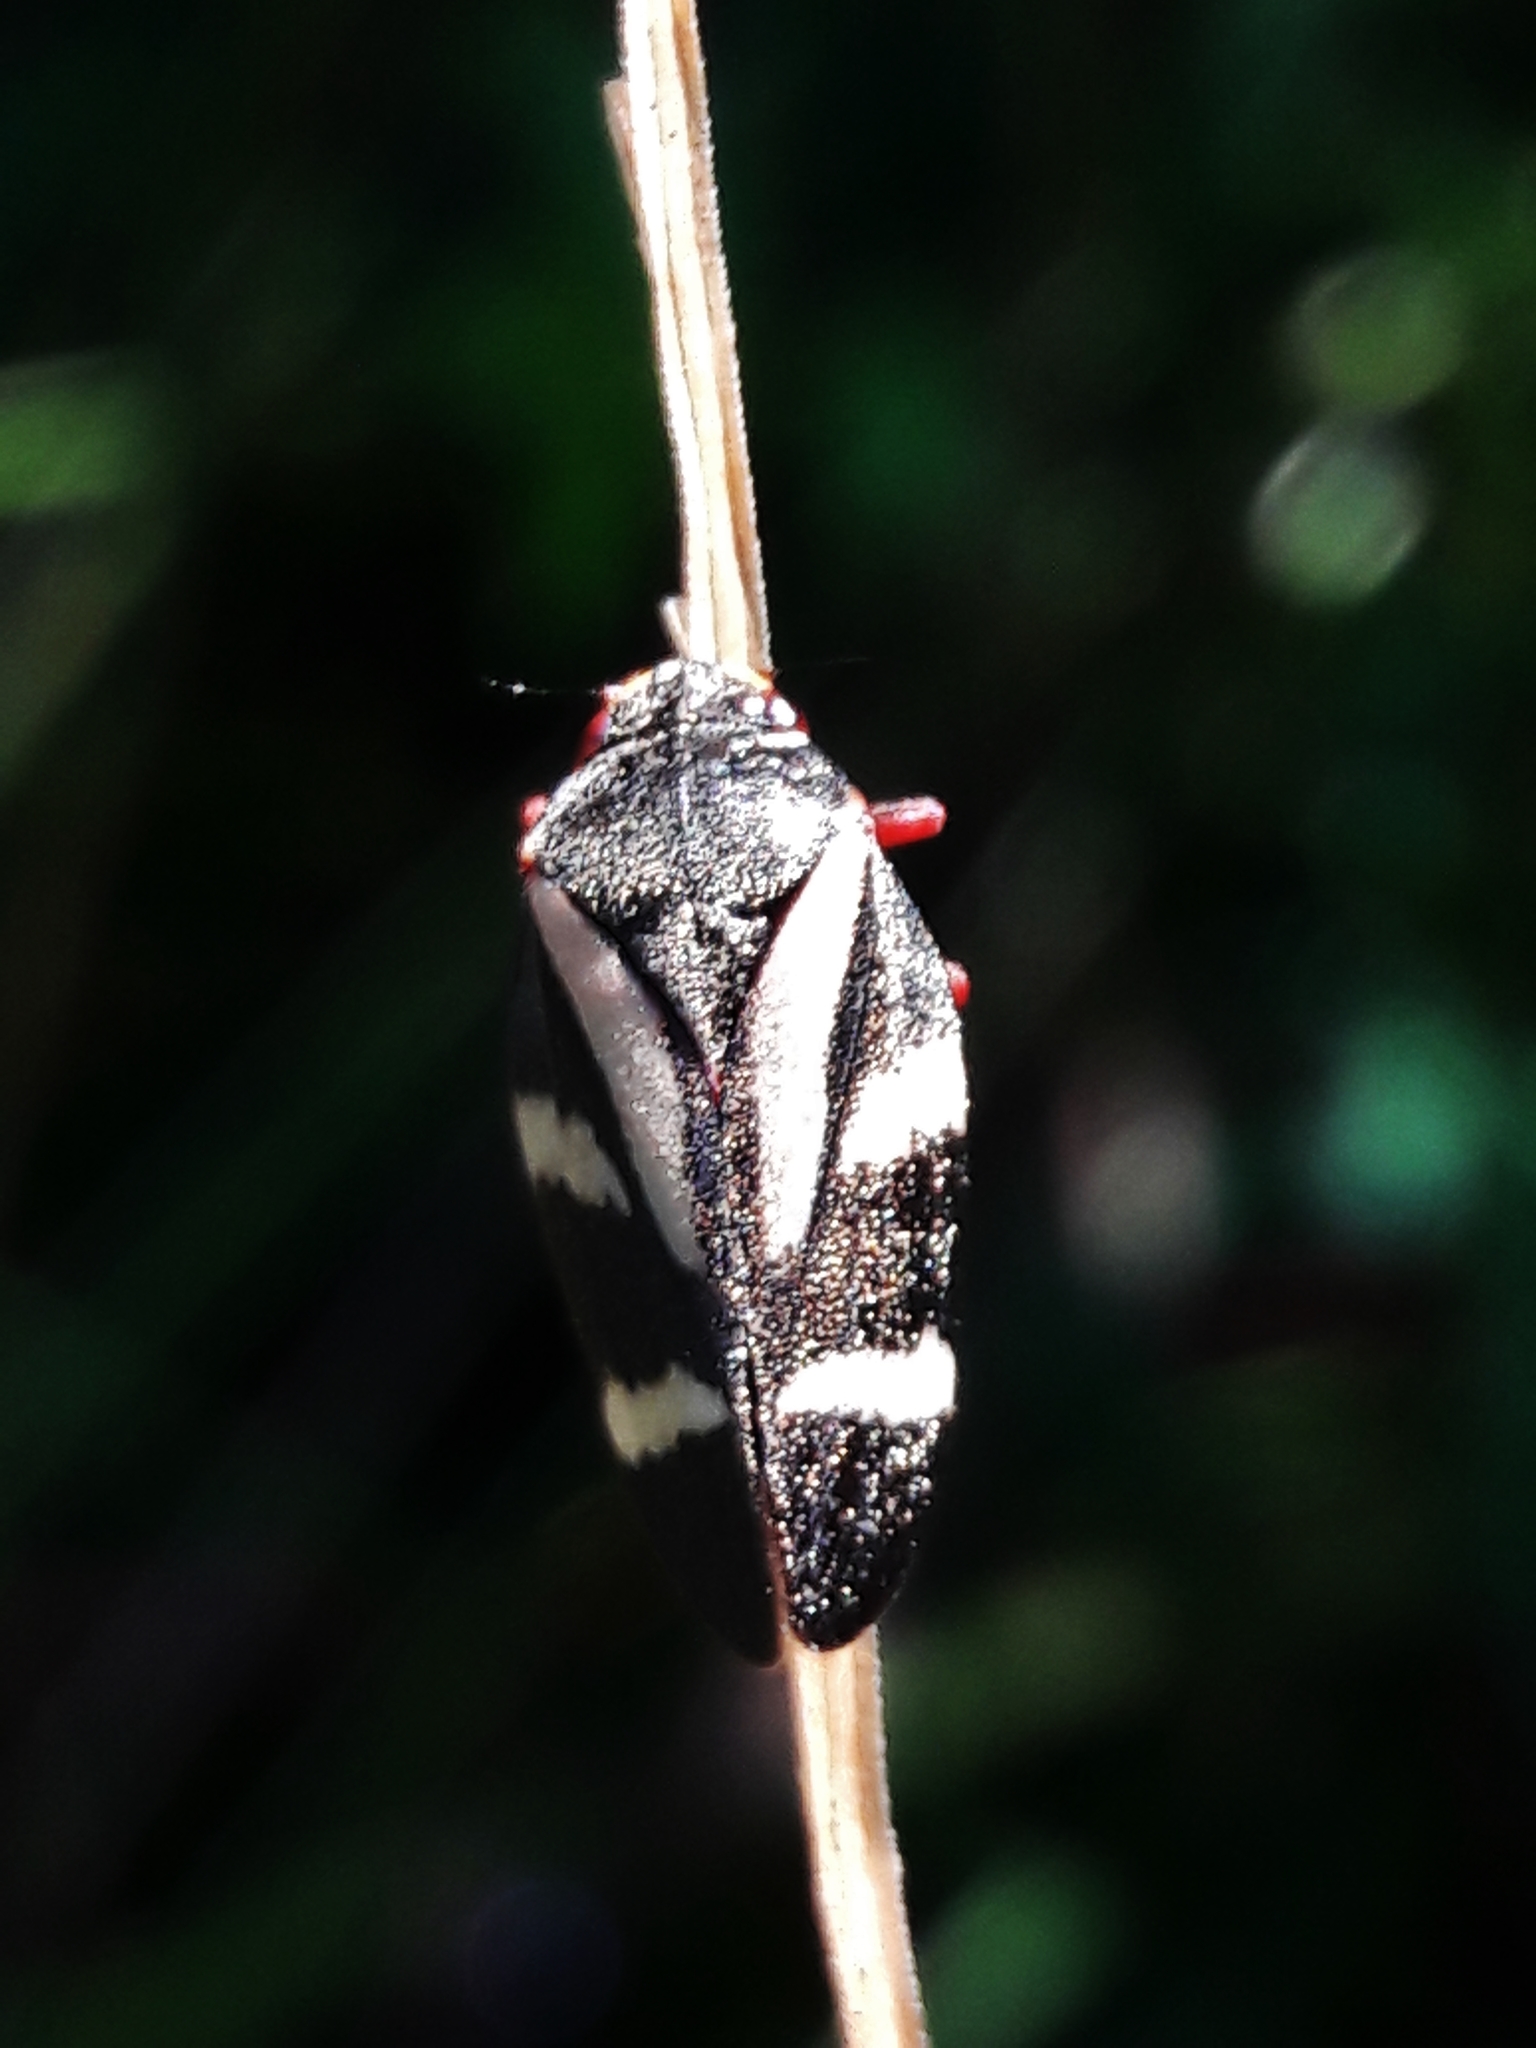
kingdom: Animalia
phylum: Arthropoda
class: Insecta
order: Hemiptera
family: Cercopidae
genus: Deois
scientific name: Deois flavopicta
